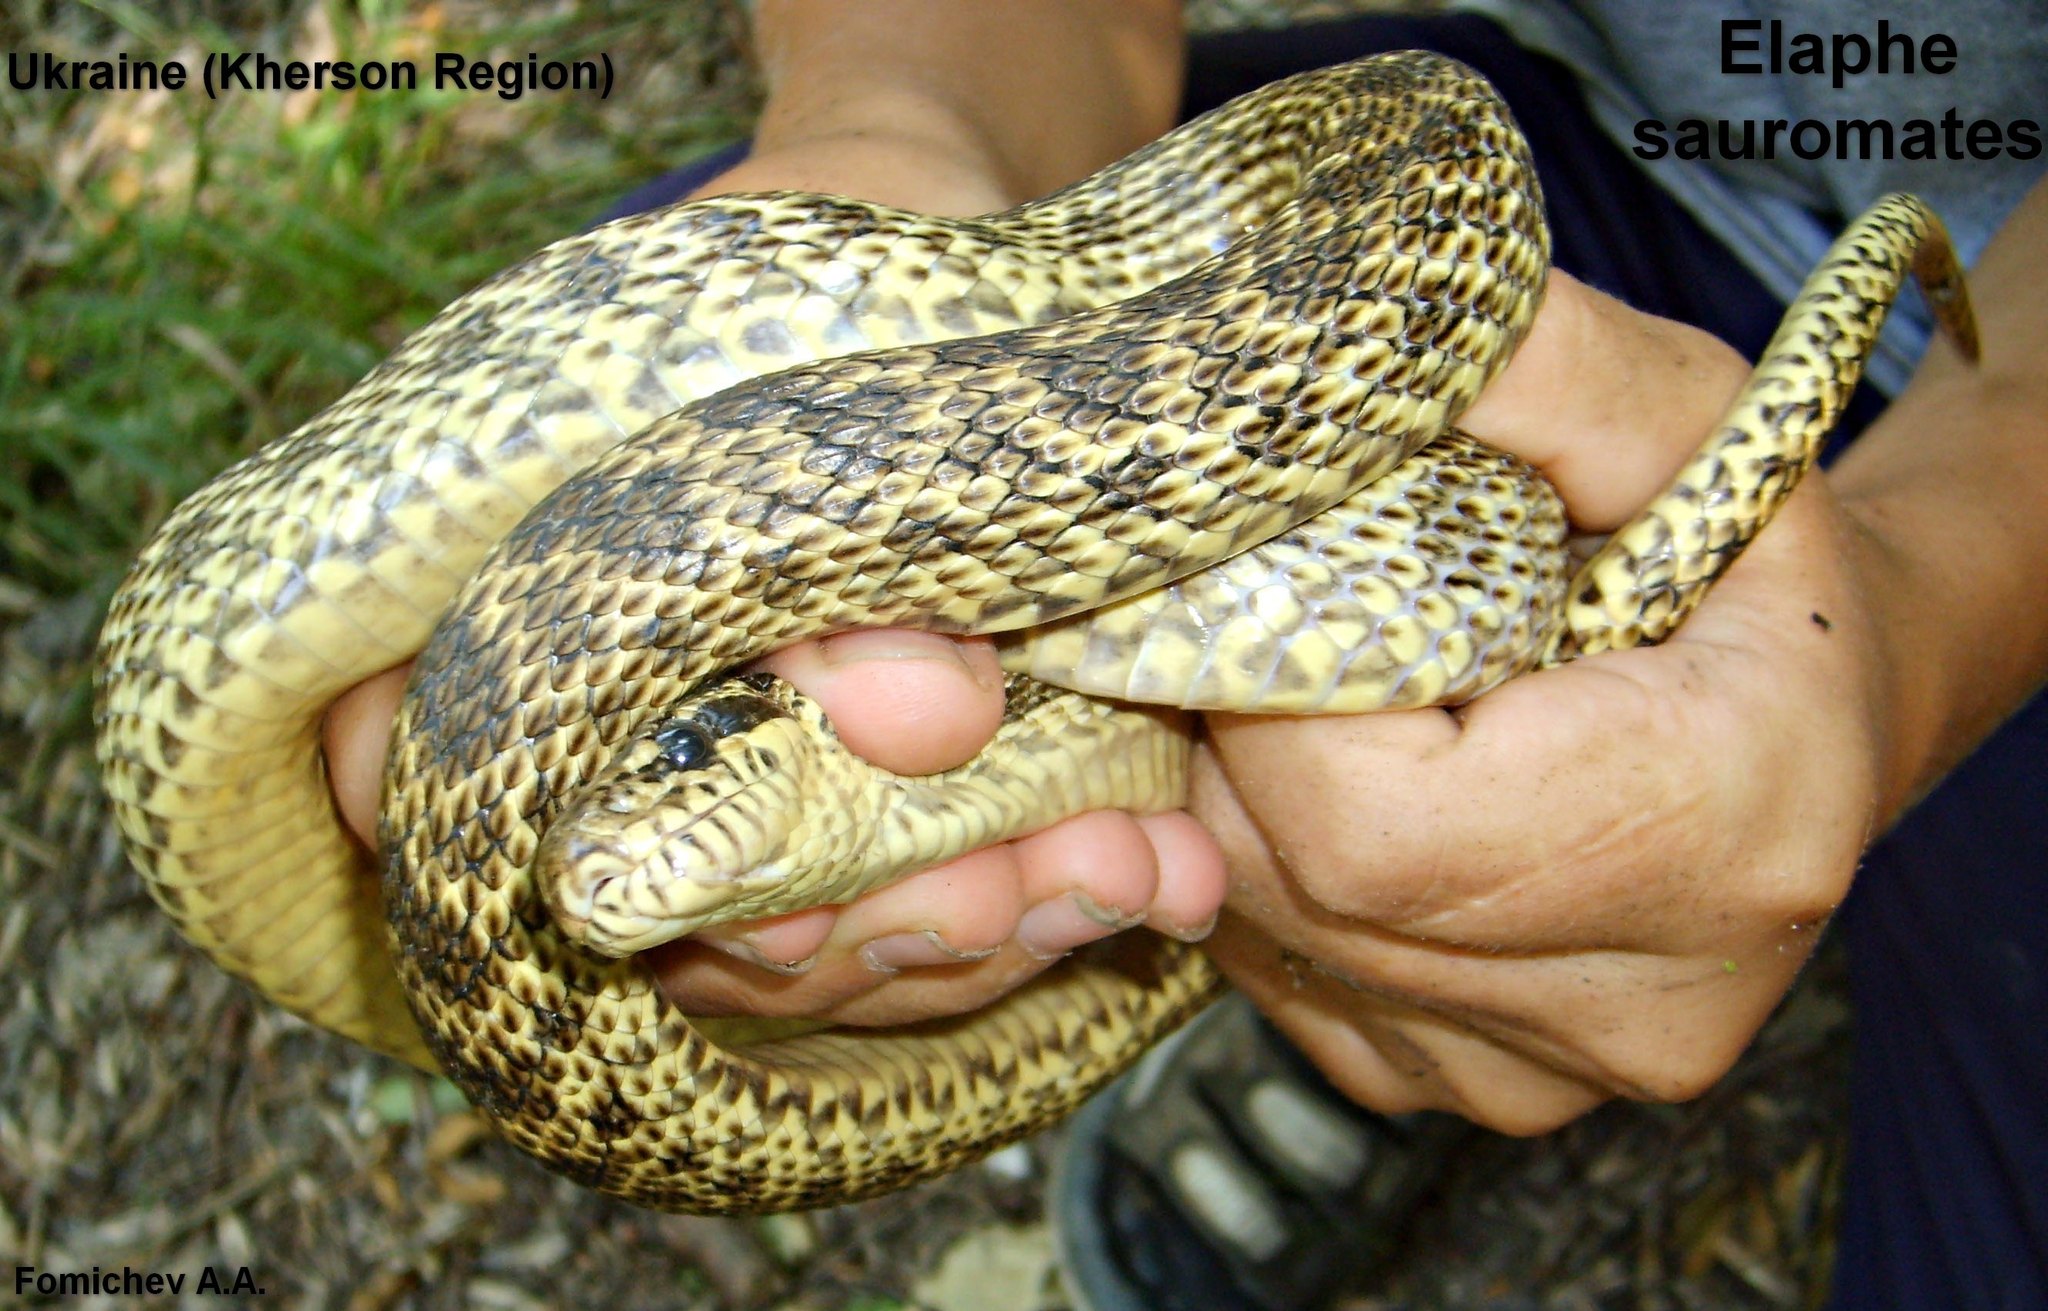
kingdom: Animalia
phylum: Chordata
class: Squamata
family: Colubridae
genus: Elaphe
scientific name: Elaphe sauromates
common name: Eastern four-lined ratsnake
